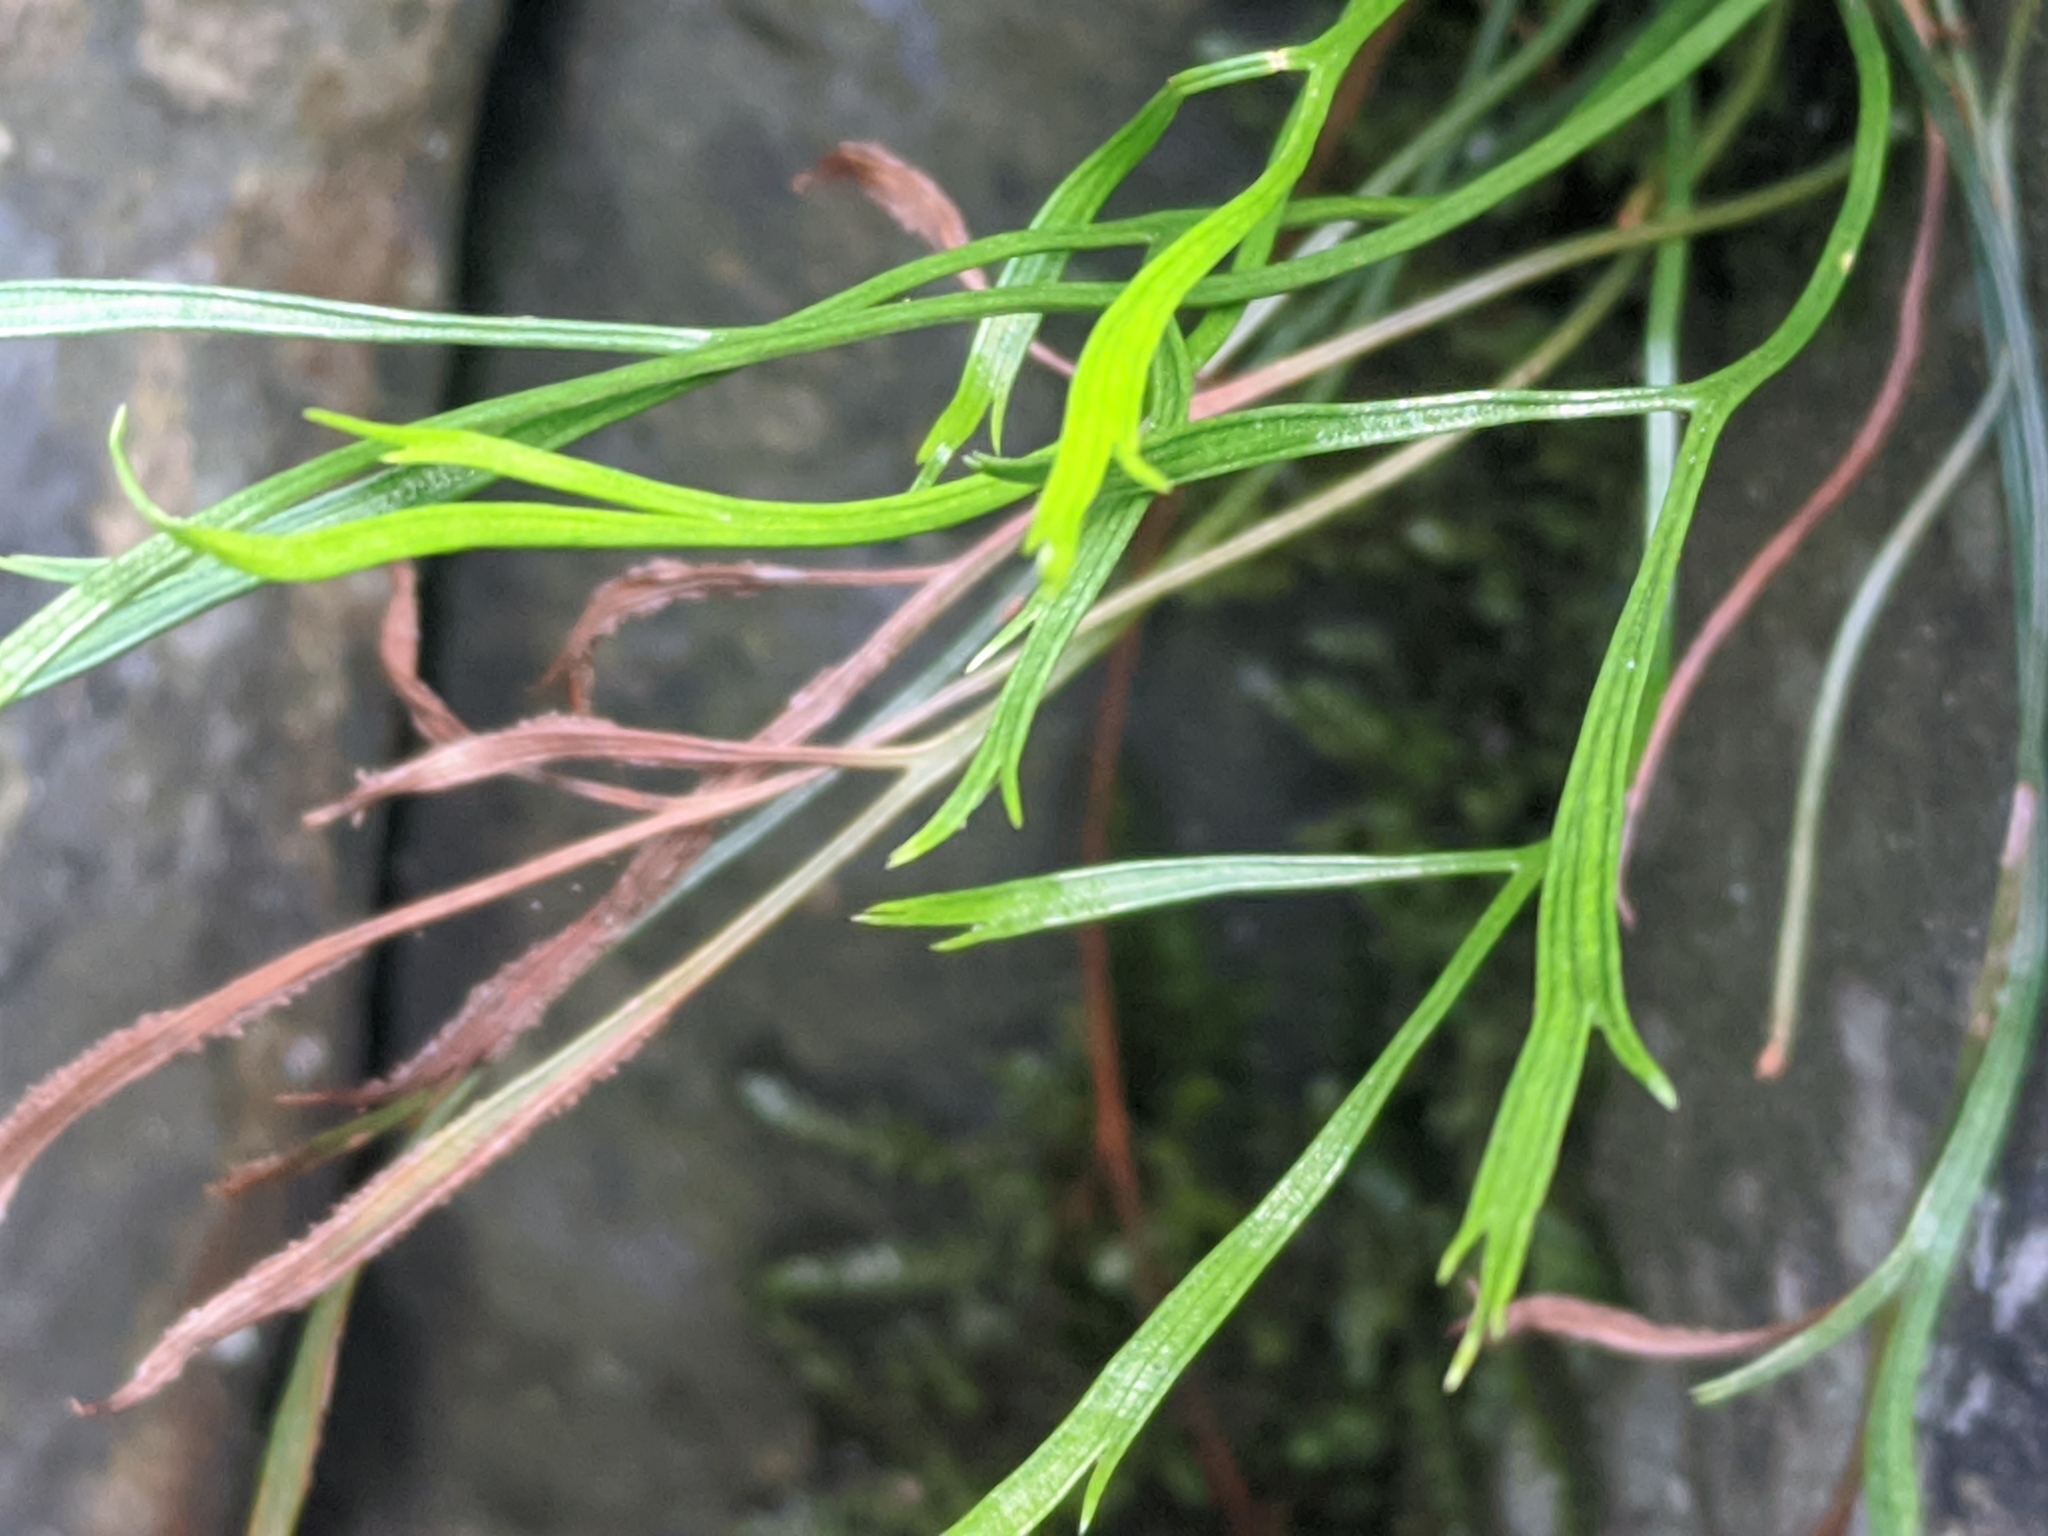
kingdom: Plantae
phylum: Tracheophyta
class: Polypodiopsida
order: Polypodiales
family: Aspleniaceae
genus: Asplenium
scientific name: Asplenium septentrionale
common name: Forked spleenwort
